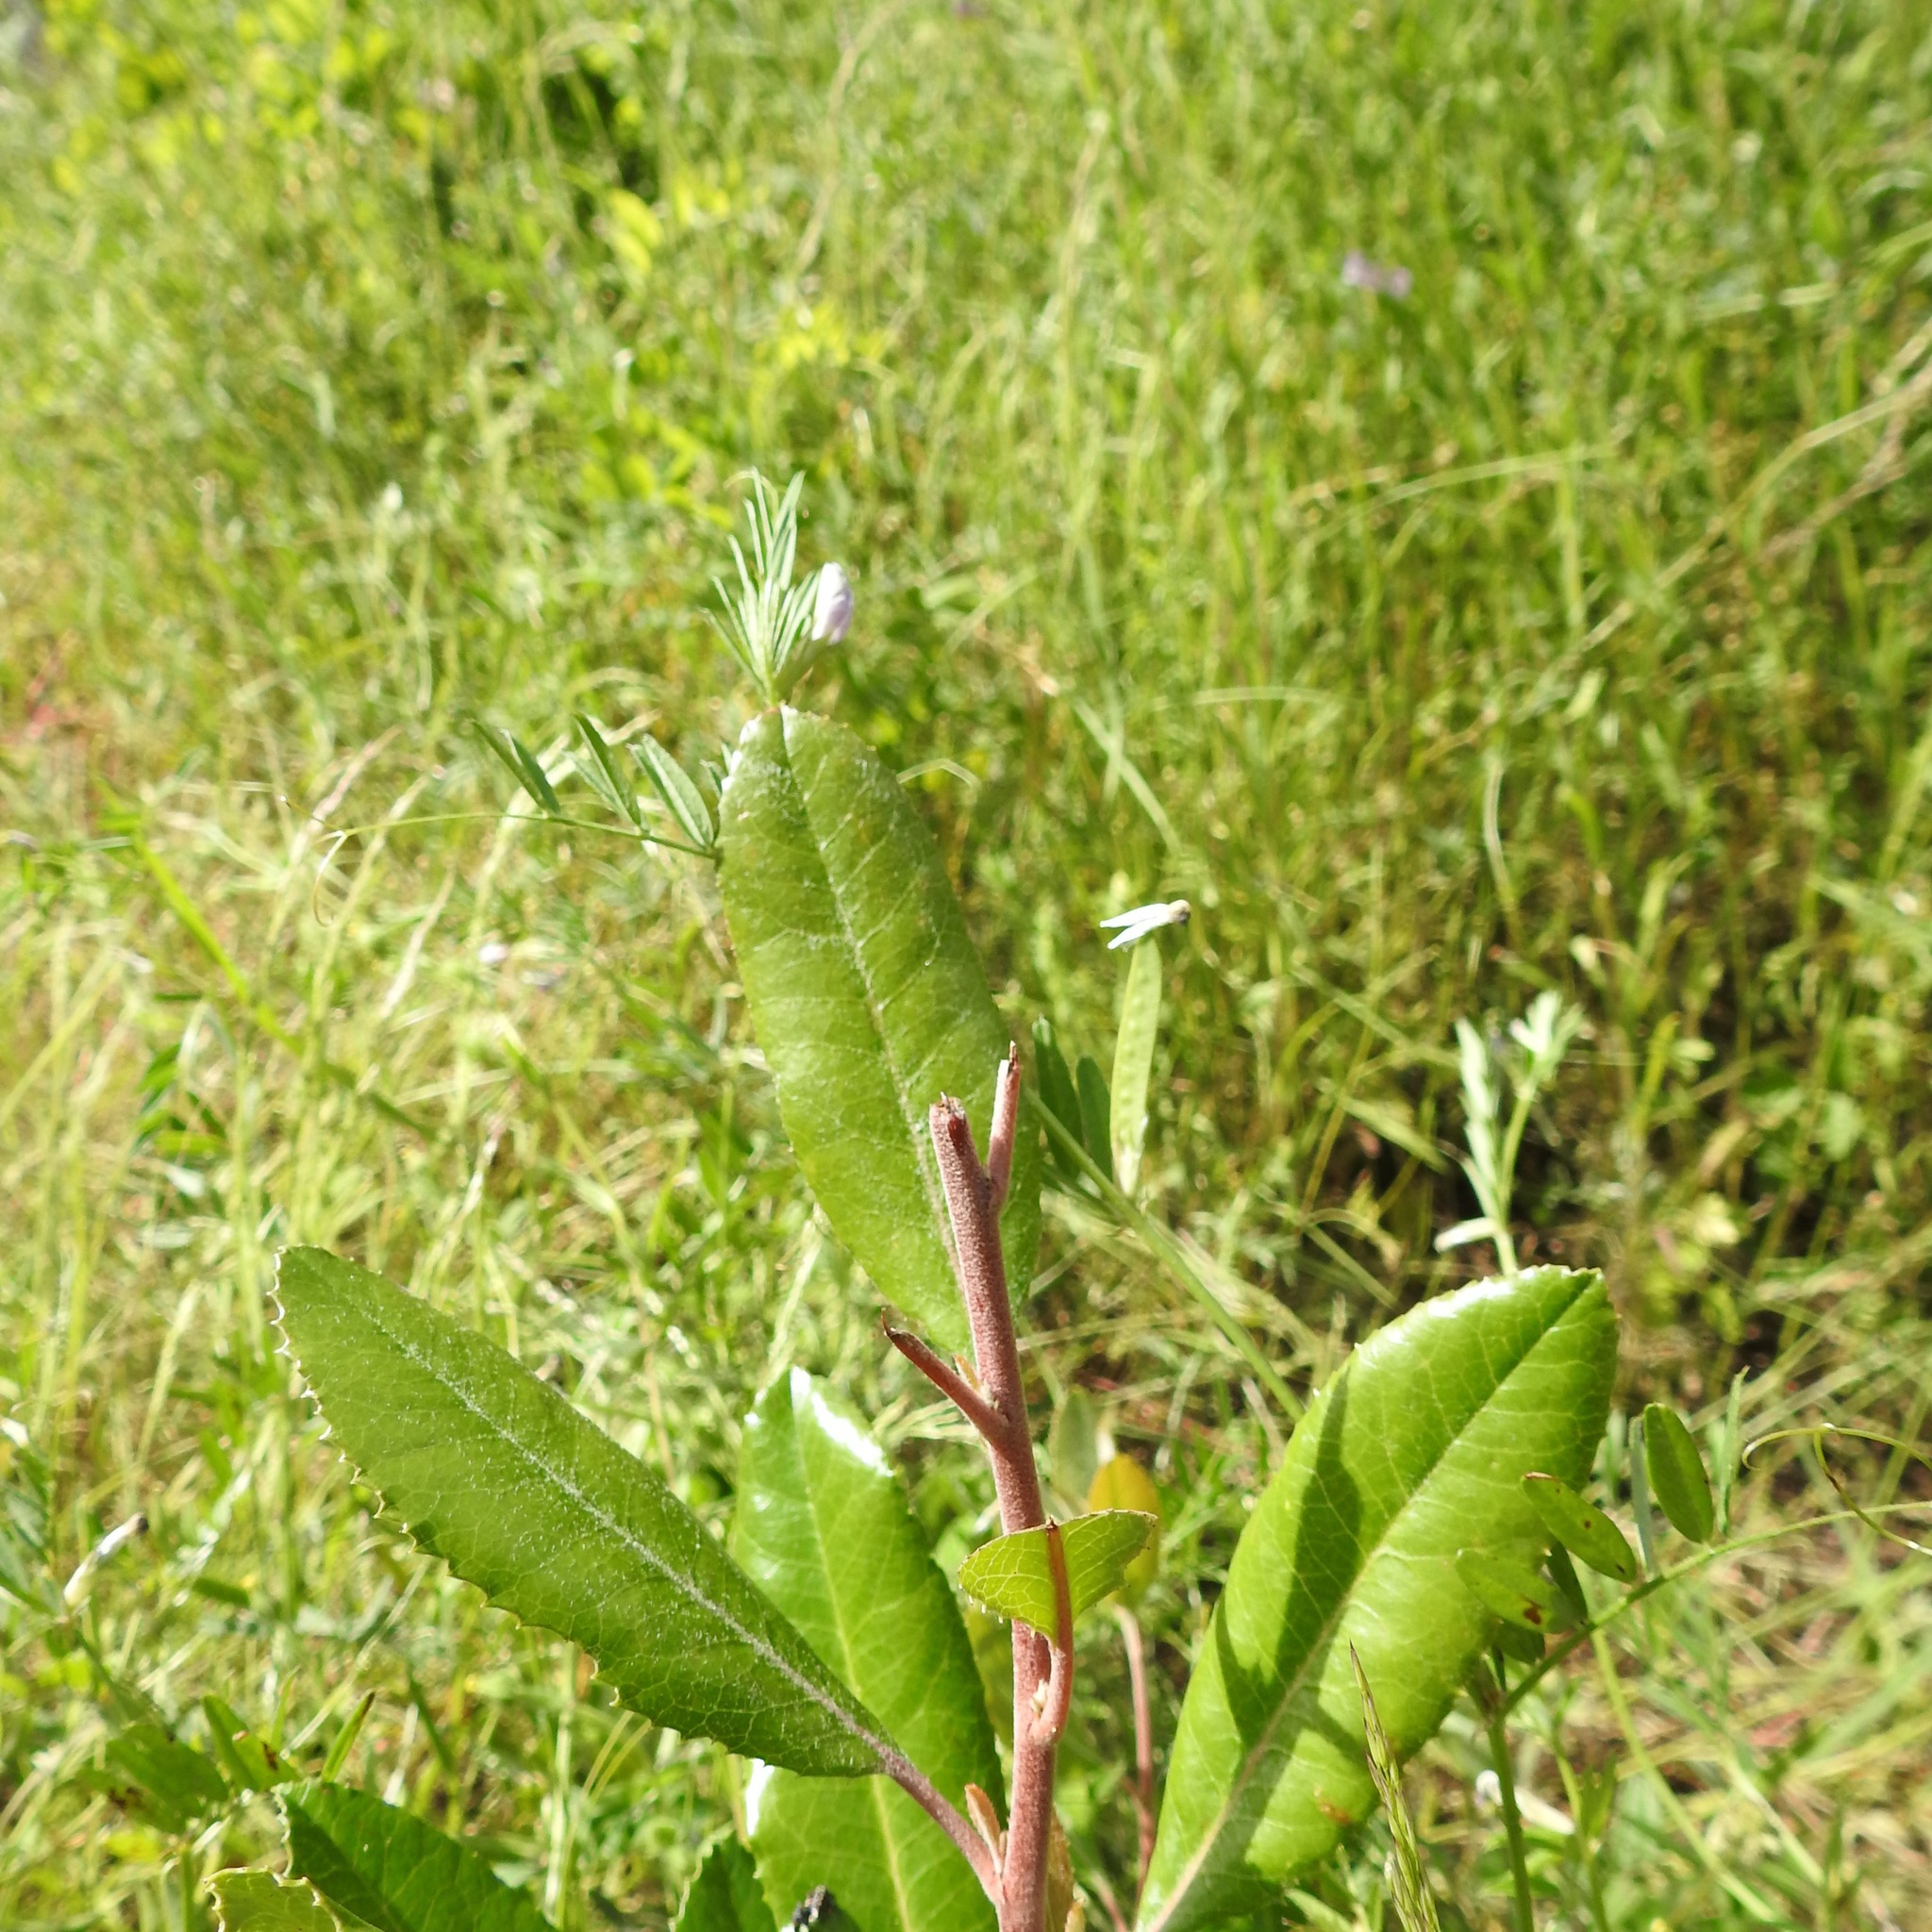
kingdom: Plantae
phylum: Tracheophyta
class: Magnoliopsida
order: Rosales
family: Rosaceae
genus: Heteromeles
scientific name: Heteromeles arbutifolia
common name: California-holly
